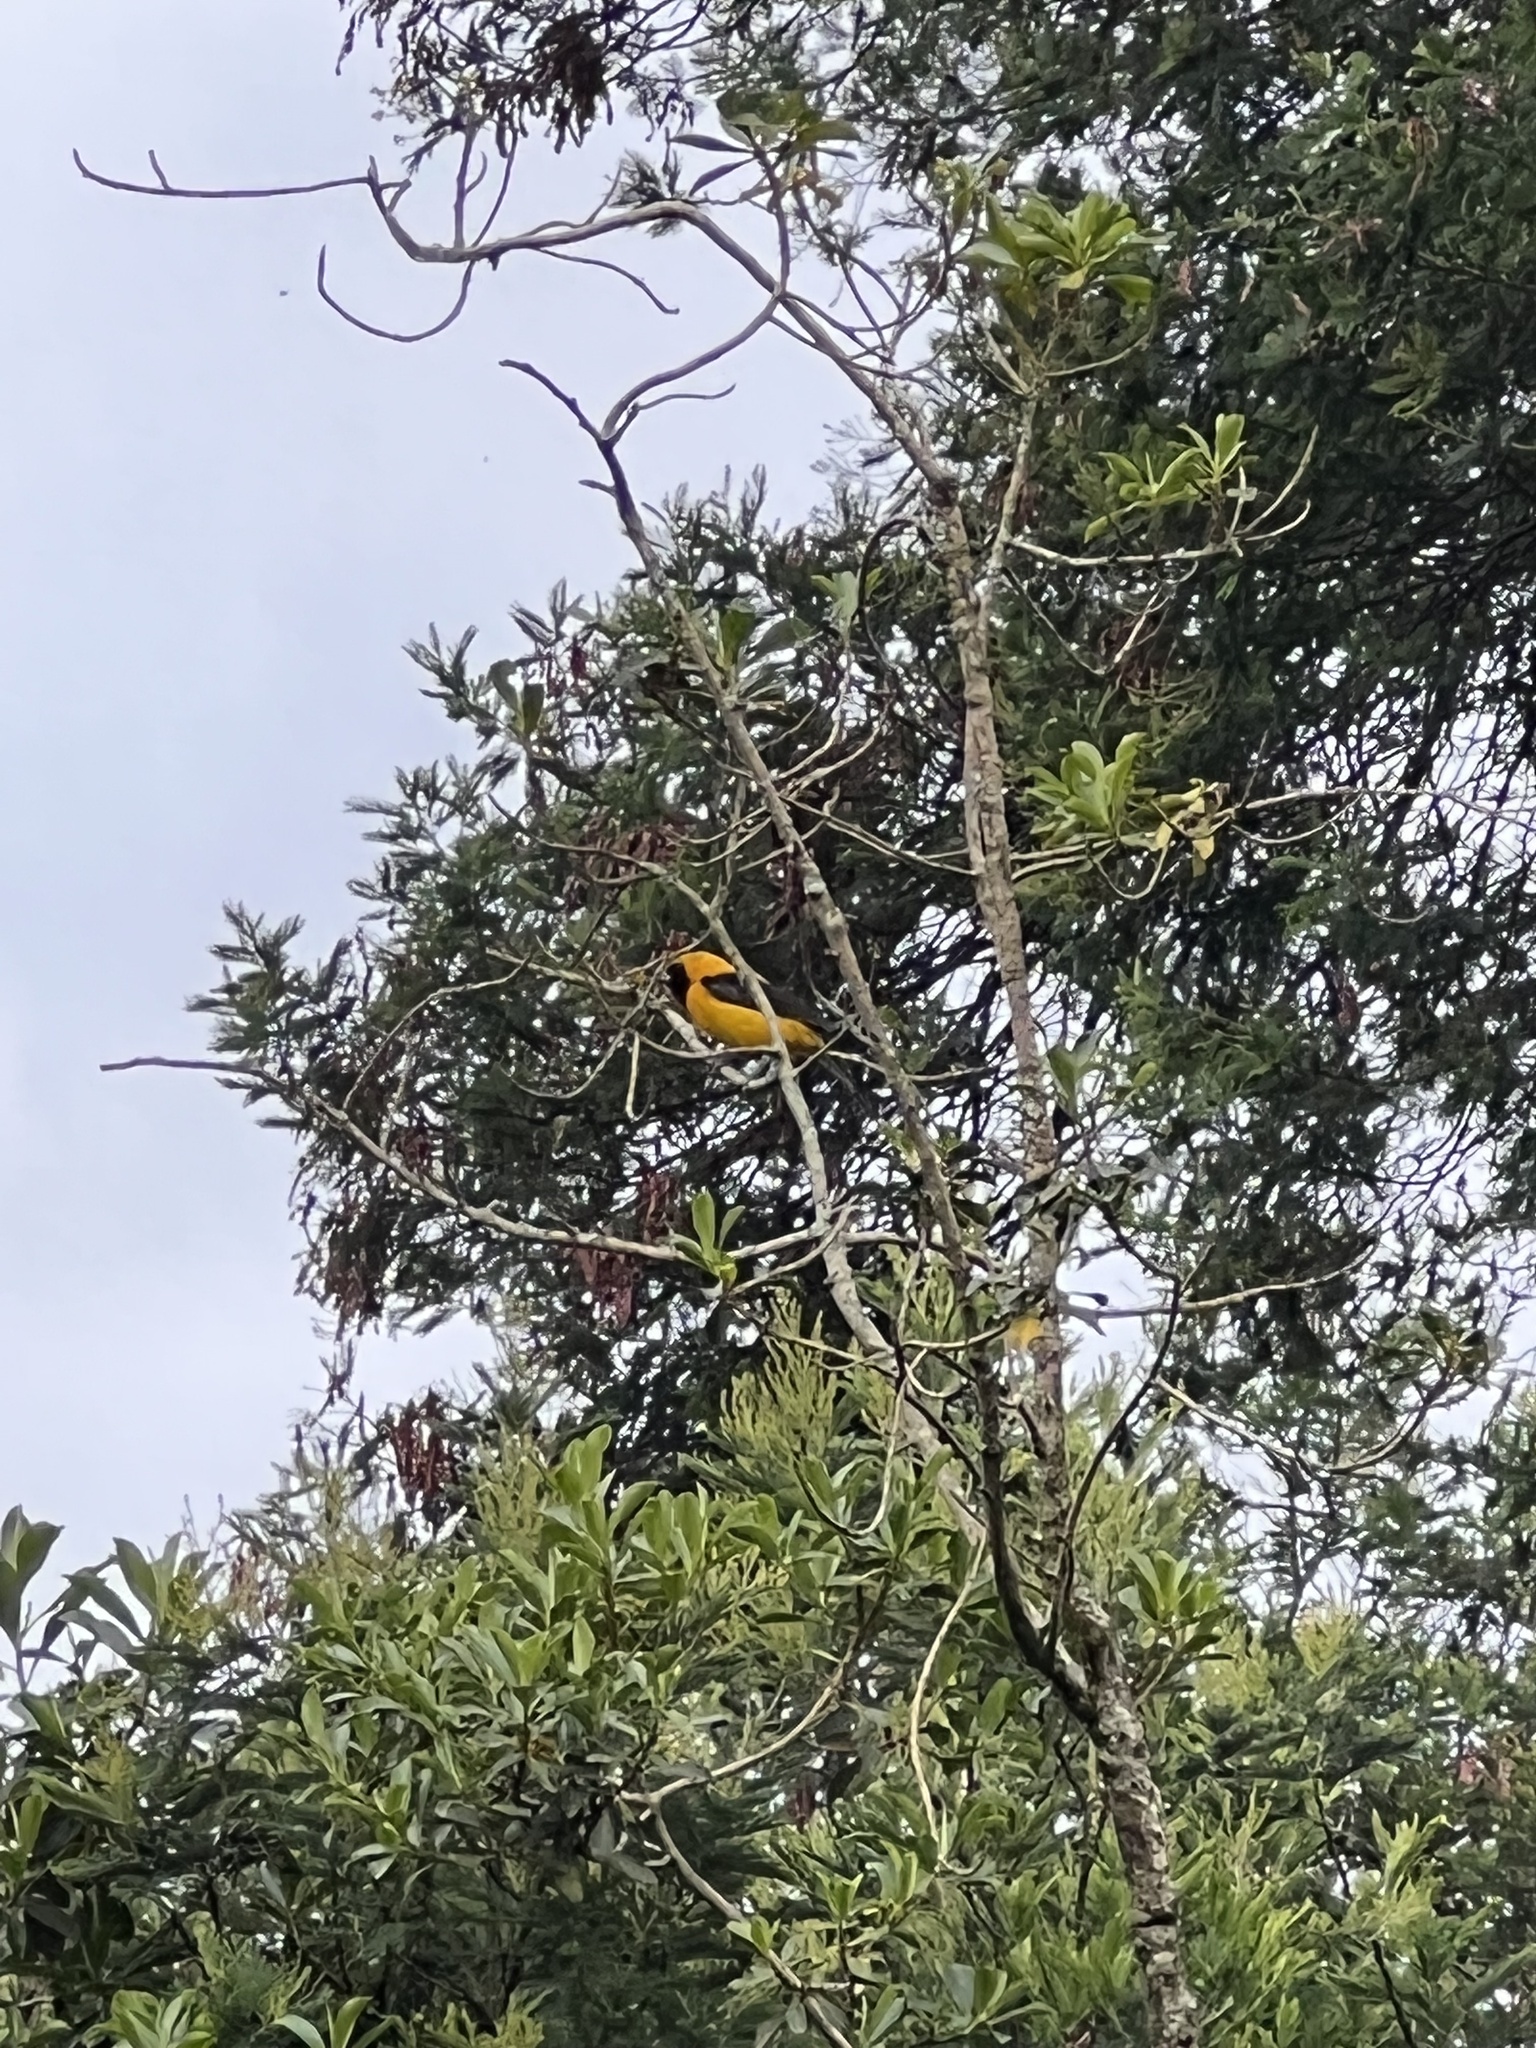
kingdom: Animalia
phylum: Chordata
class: Aves
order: Passeriformes
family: Icteridae
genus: Icterus
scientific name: Icterus chrysater
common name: Yellow-backed oriole
